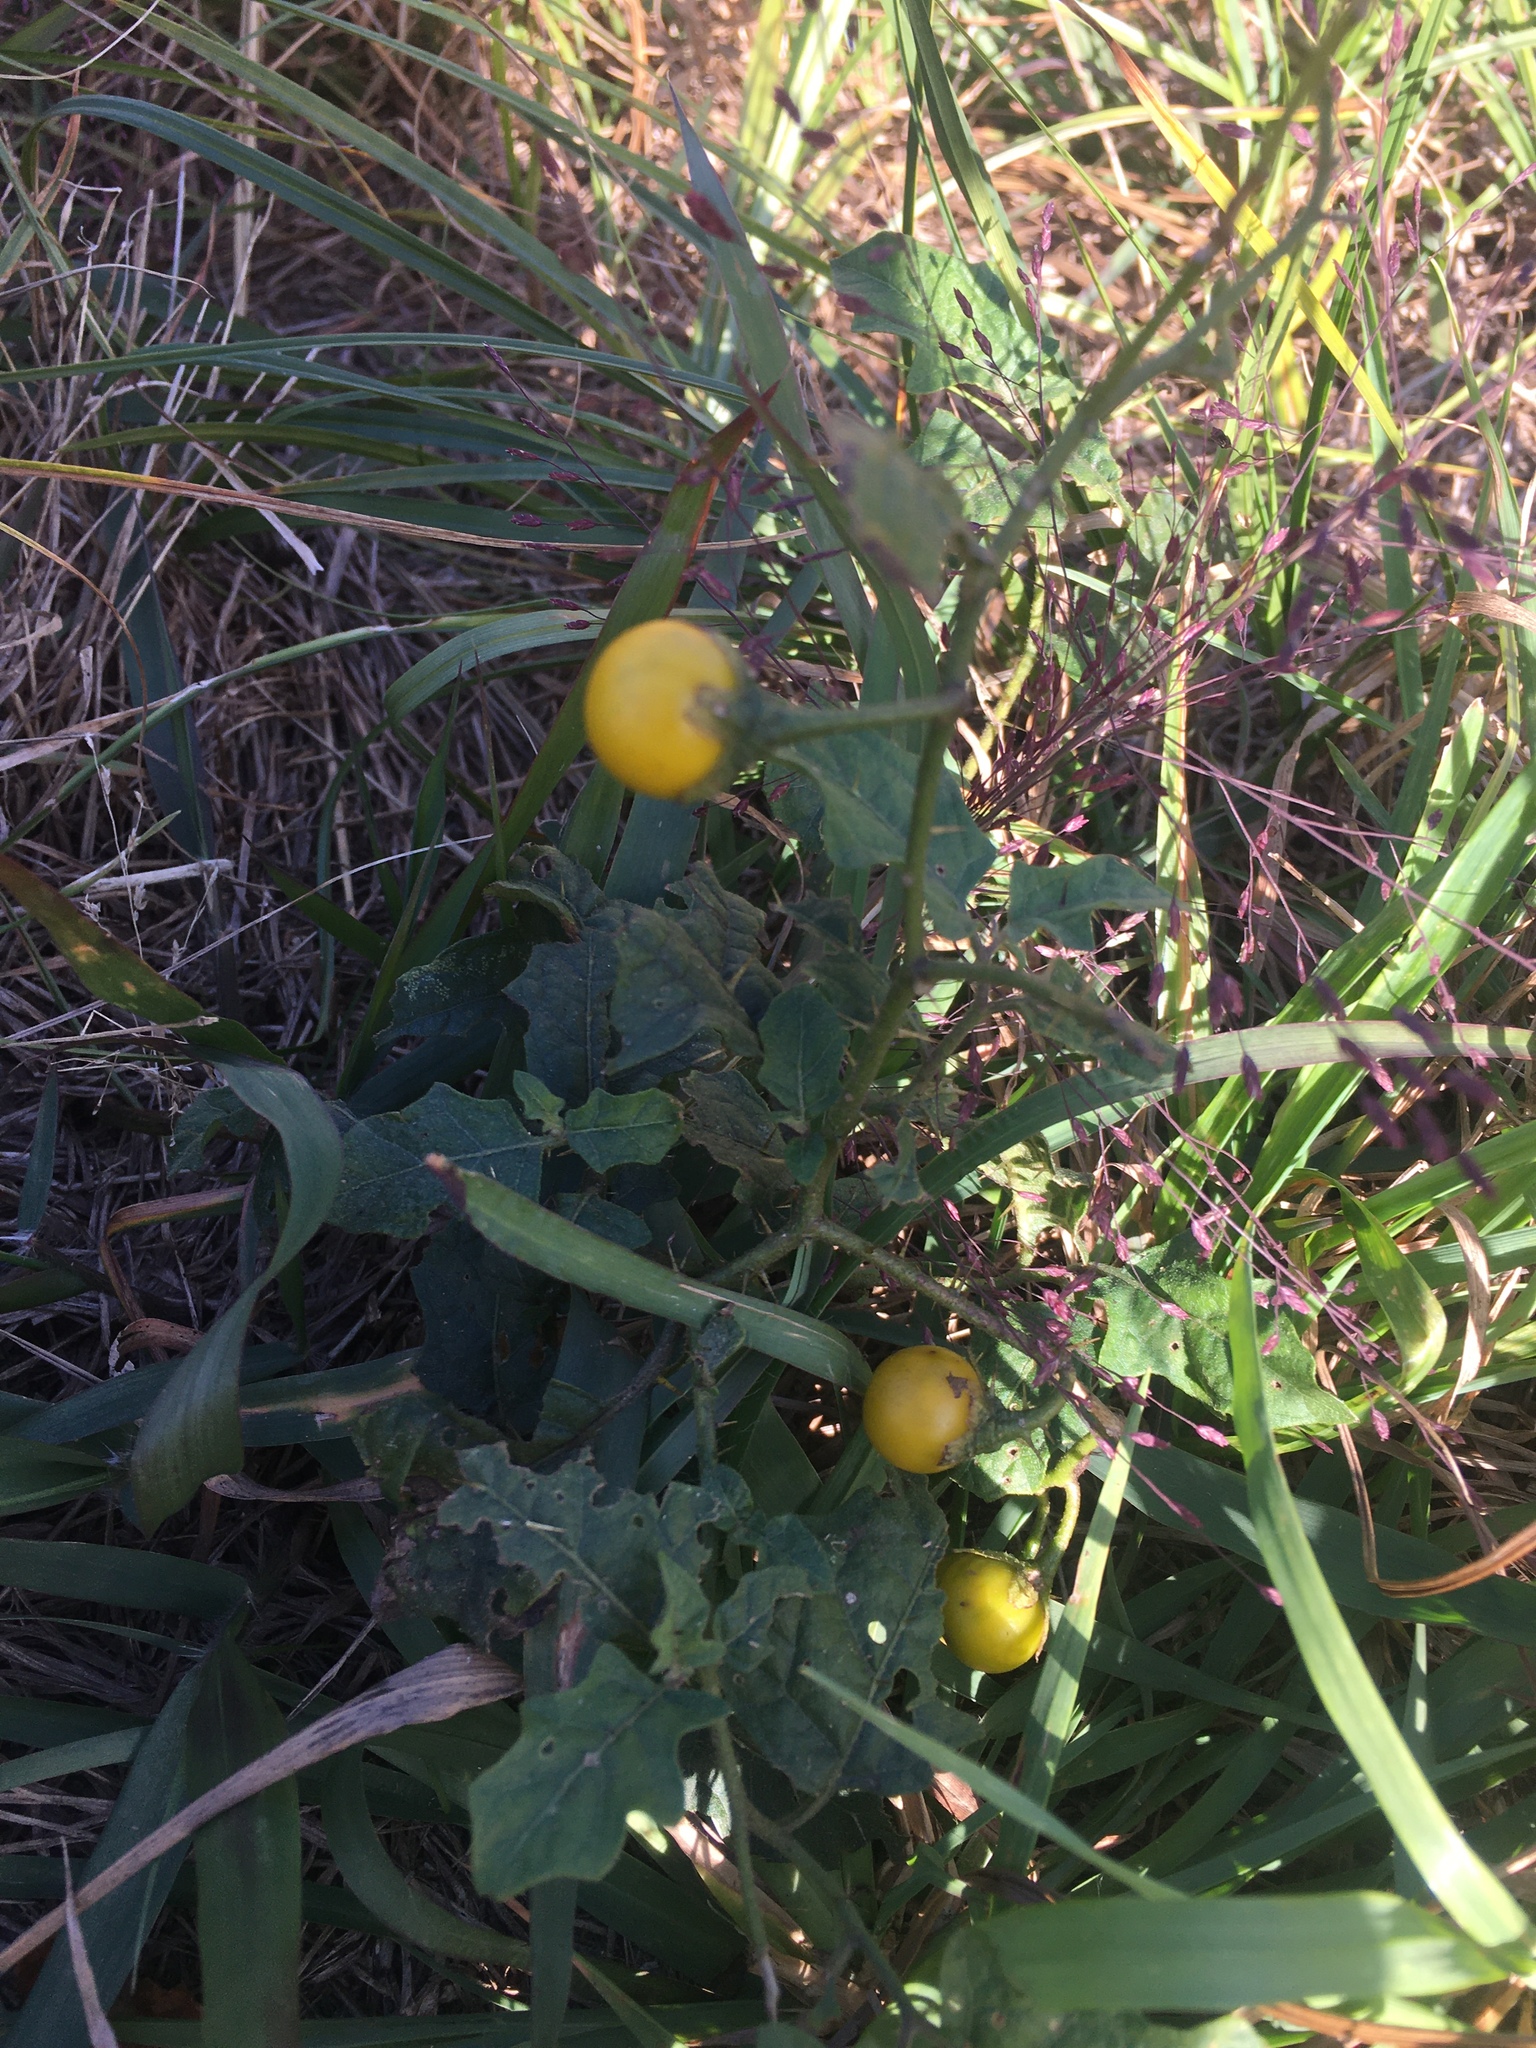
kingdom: Plantae
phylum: Tracheophyta
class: Magnoliopsida
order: Solanales
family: Solanaceae
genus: Solanum
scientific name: Solanum carolinense
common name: Horse-nettle
